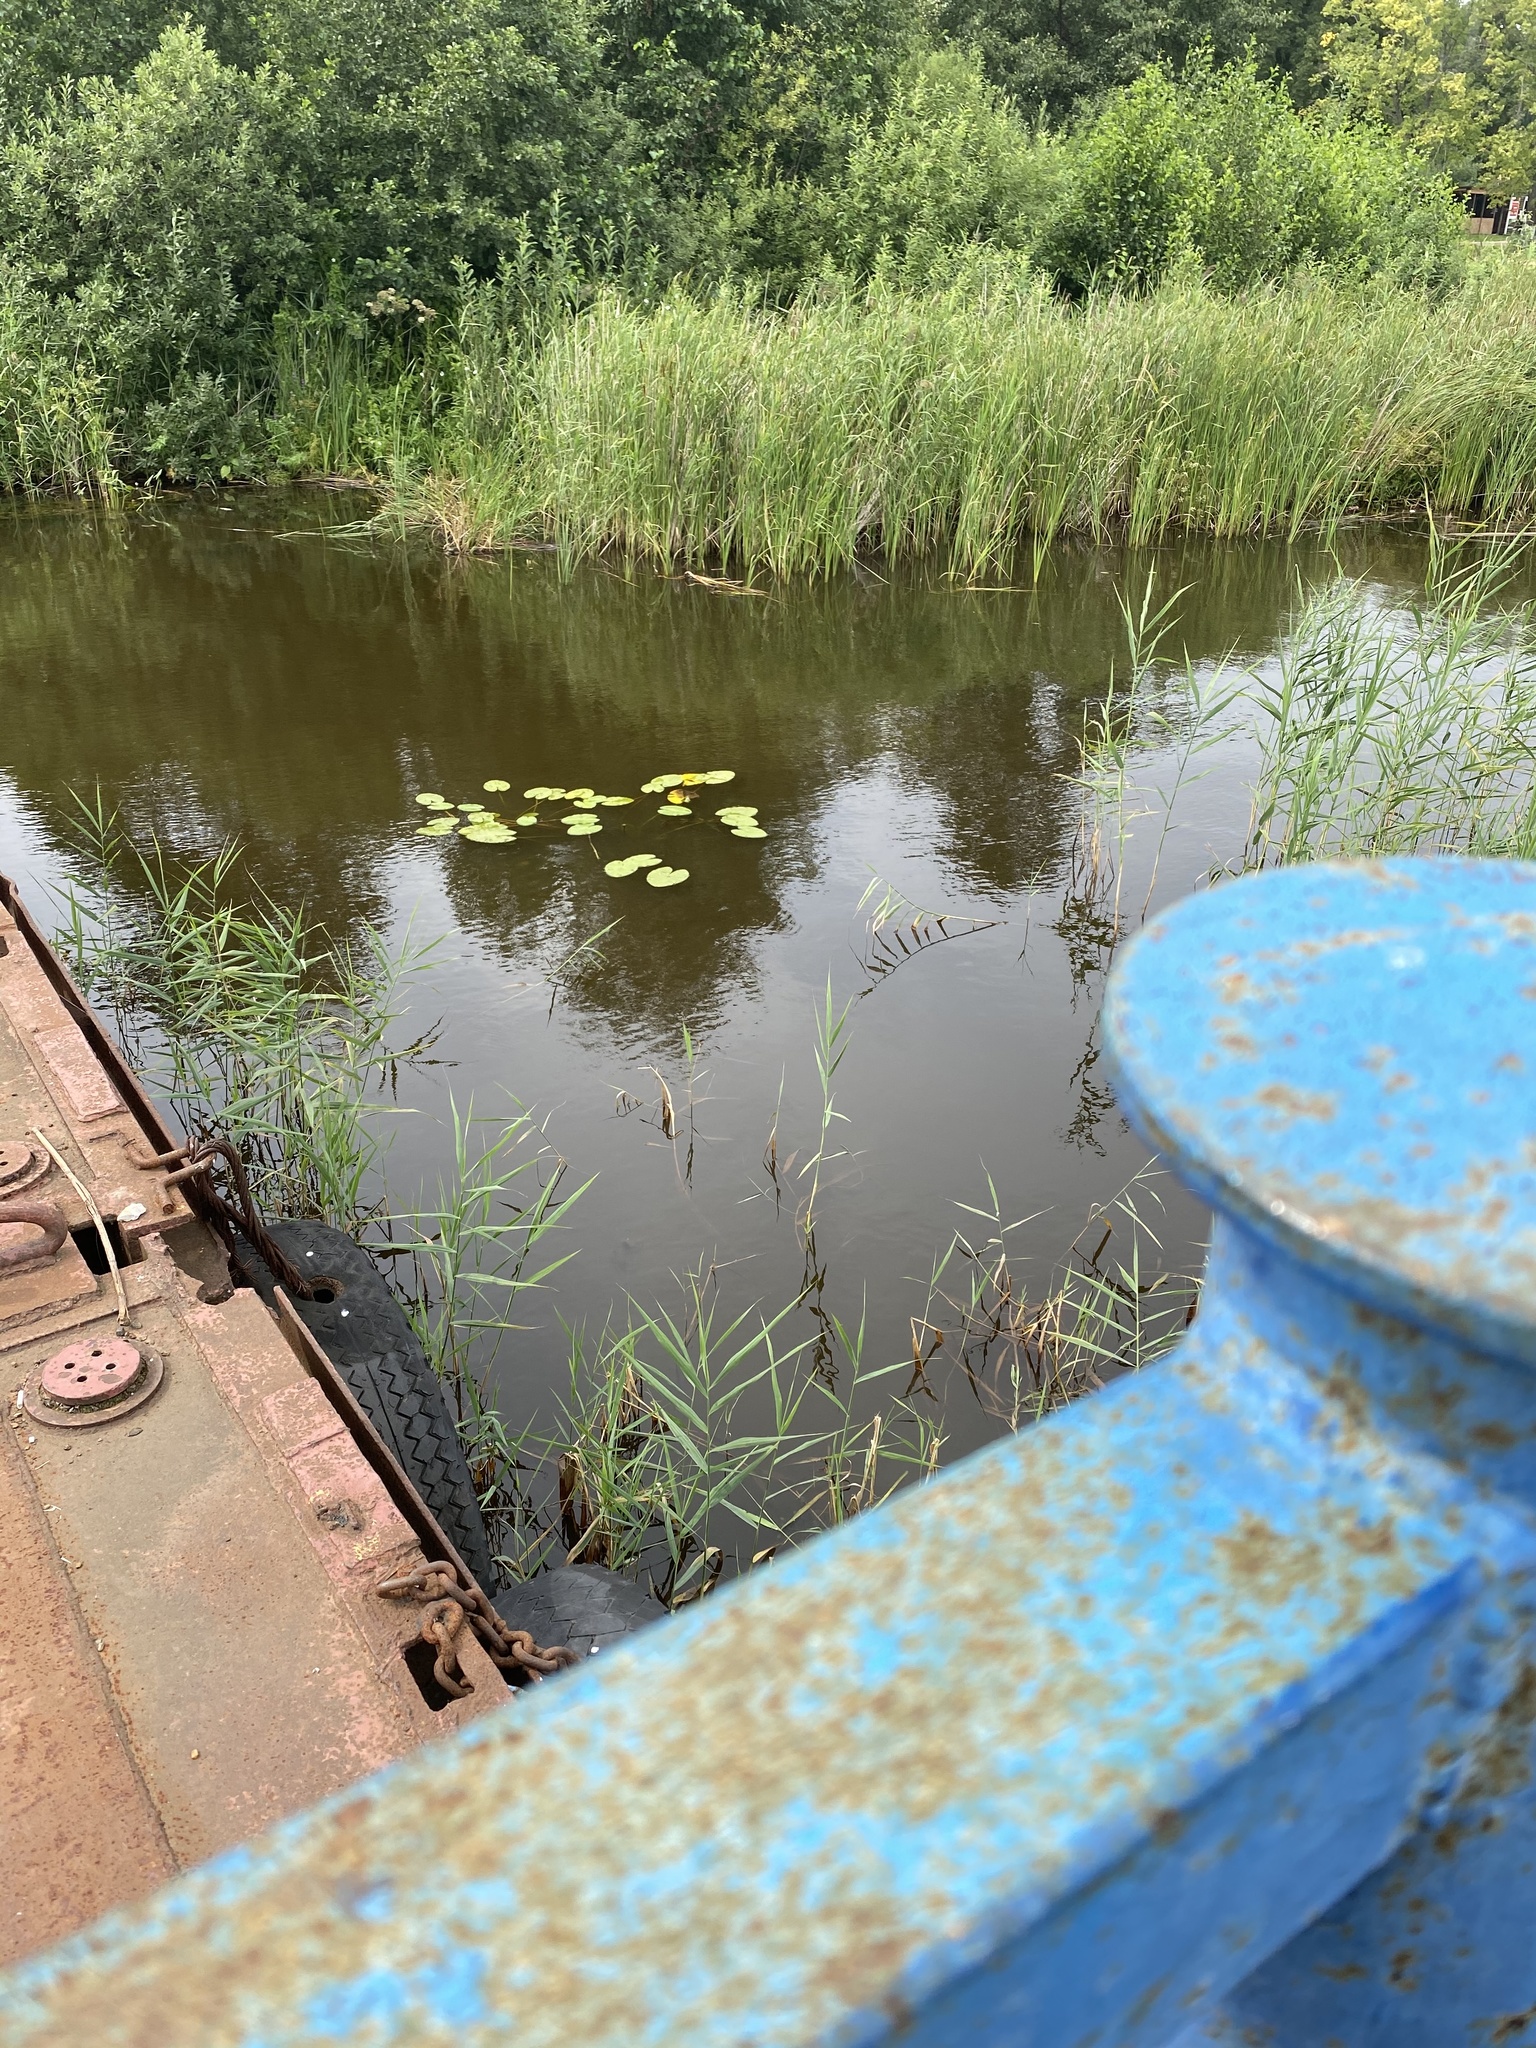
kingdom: Plantae
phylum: Tracheophyta
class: Magnoliopsida
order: Nymphaeales
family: Nymphaeaceae
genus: Nuphar
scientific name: Nuphar lutea
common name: Yellow water-lily
